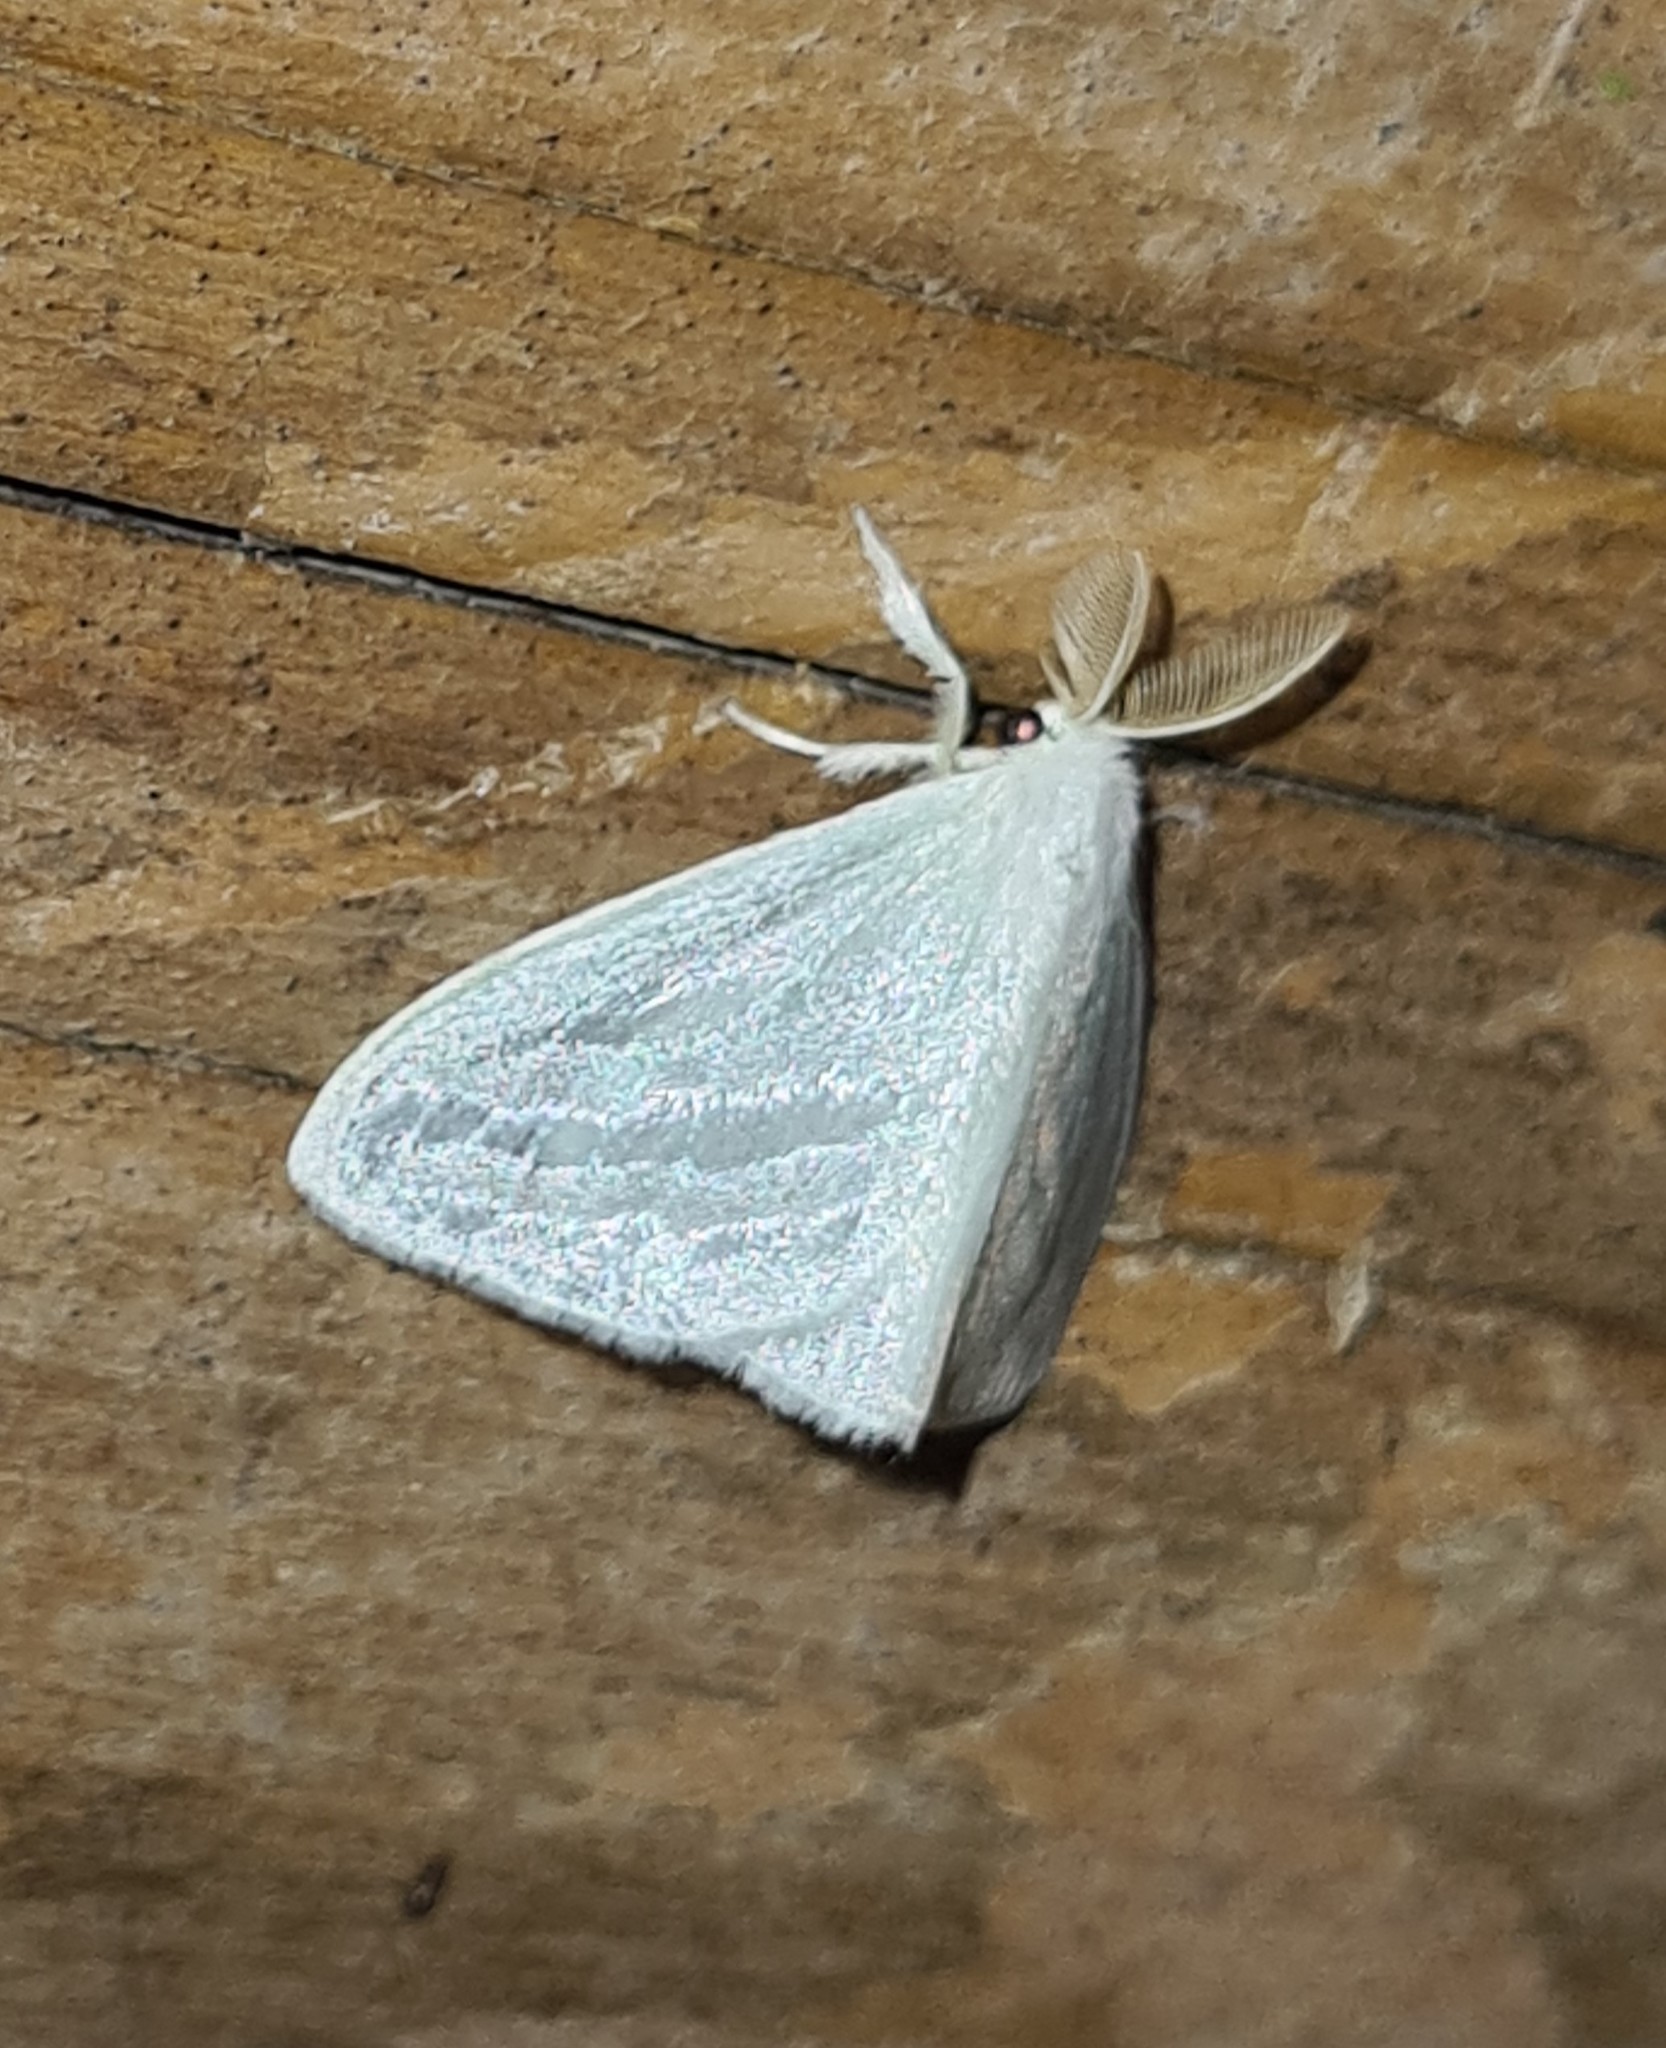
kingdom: Animalia
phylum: Arthropoda
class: Insecta
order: Lepidoptera
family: Erebidae
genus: Caviria
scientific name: Caviria regina
